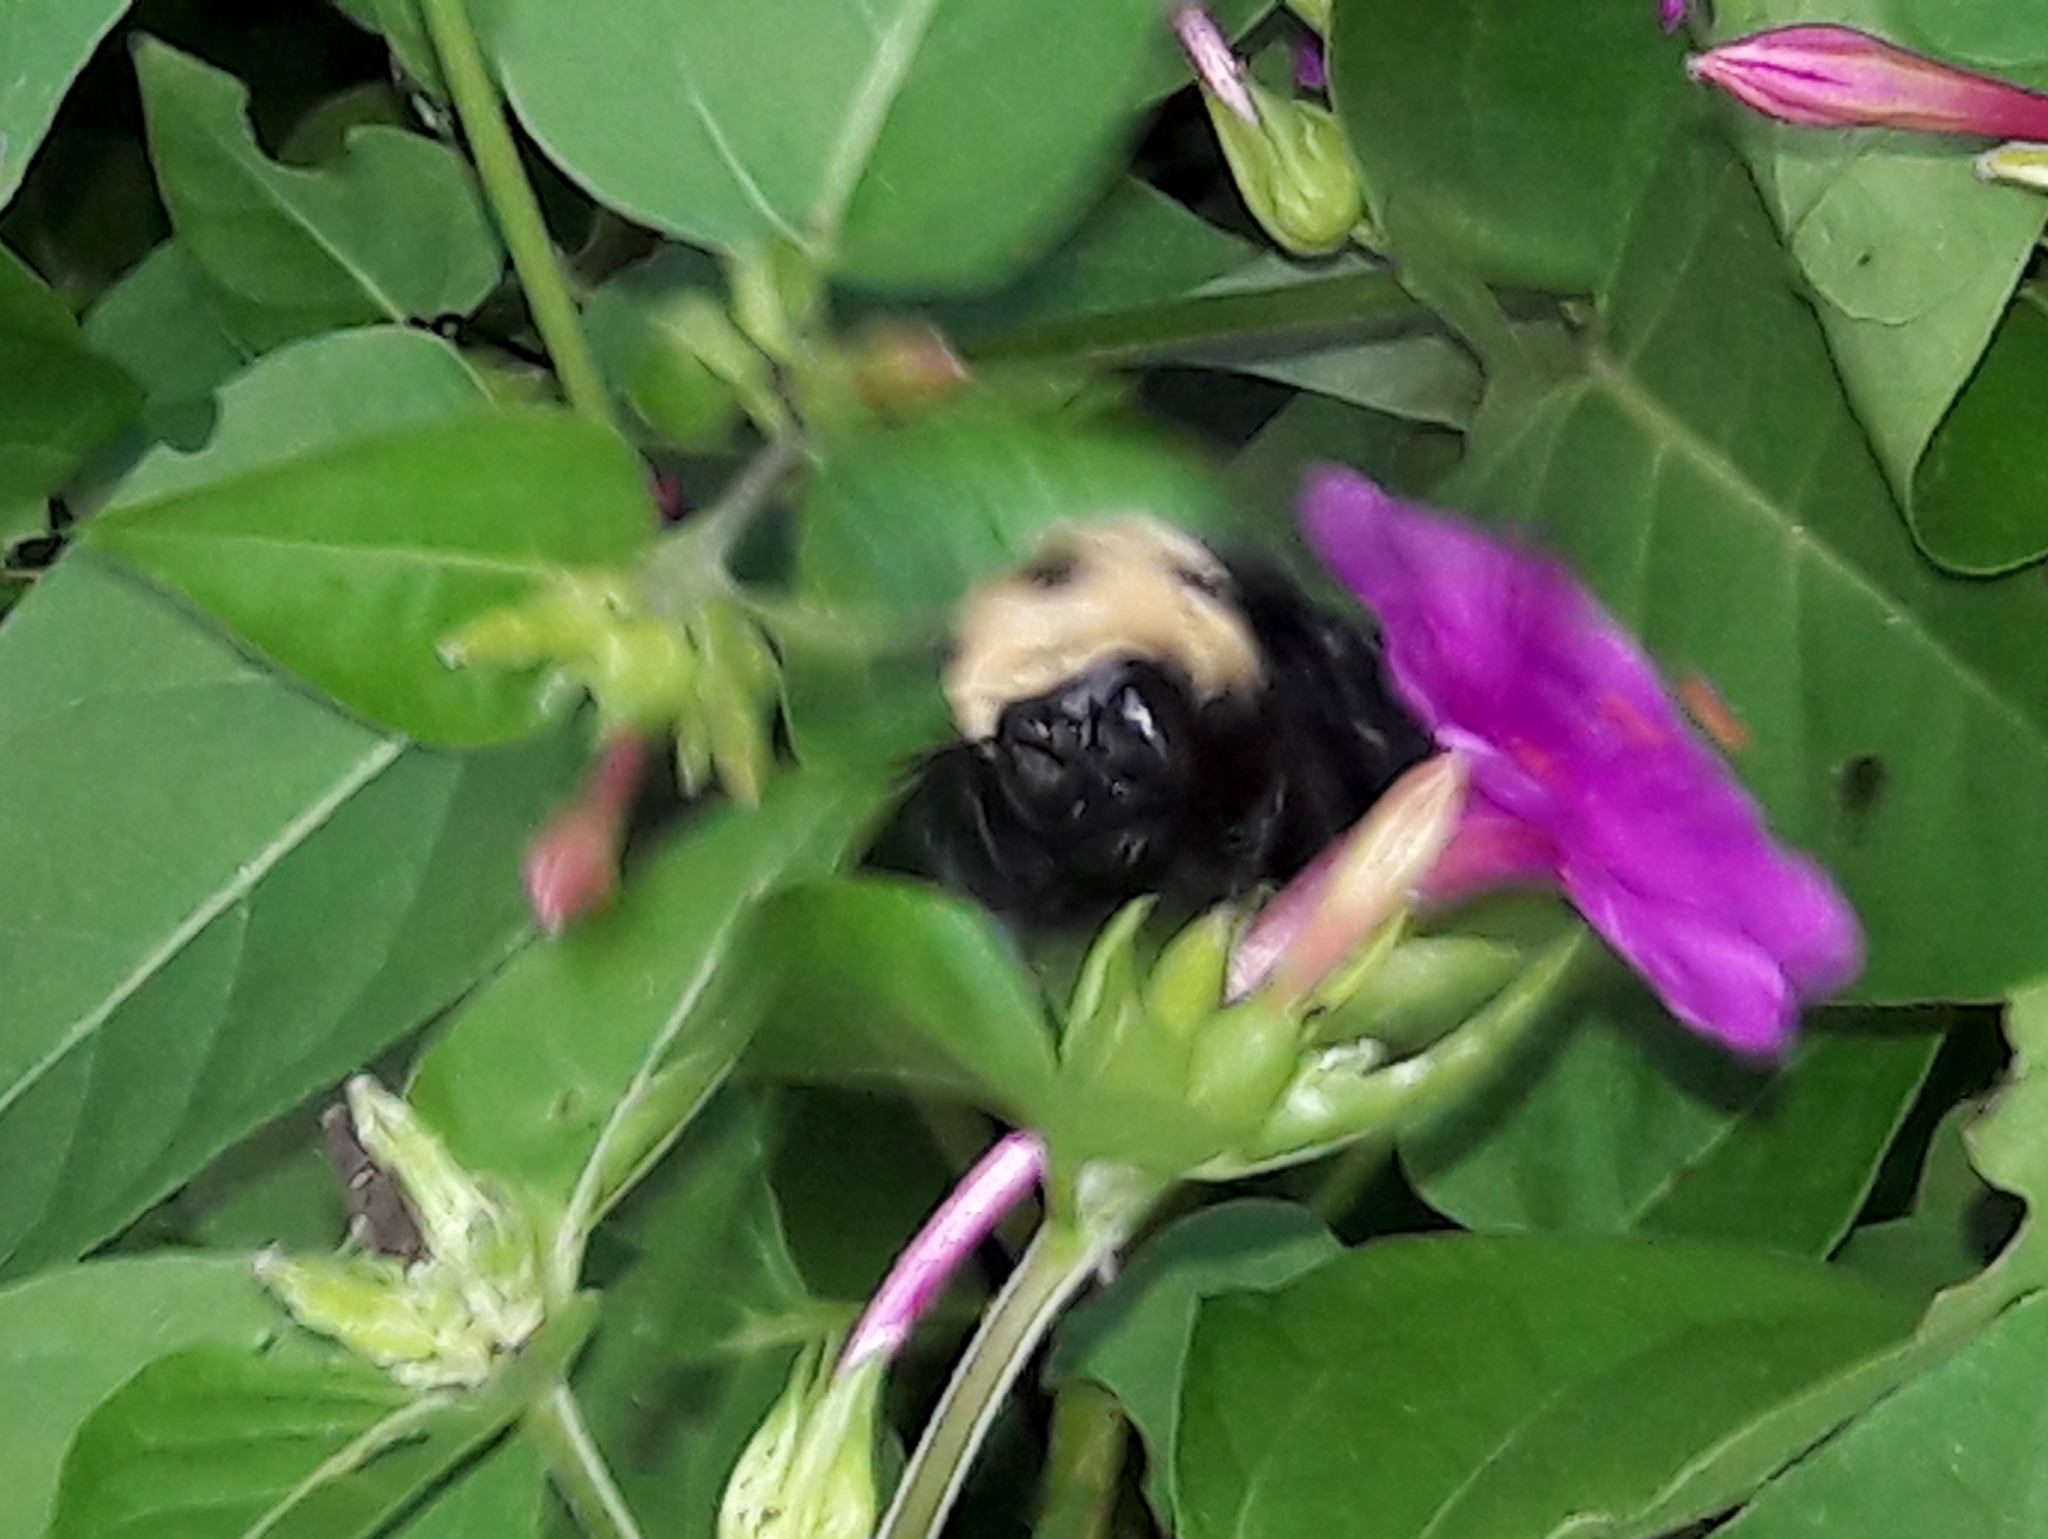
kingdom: Animalia
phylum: Arthropoda
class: Insecta
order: Hymenoptera
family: Apidae
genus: Xylocopa
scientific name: Xylocopa grisescens
